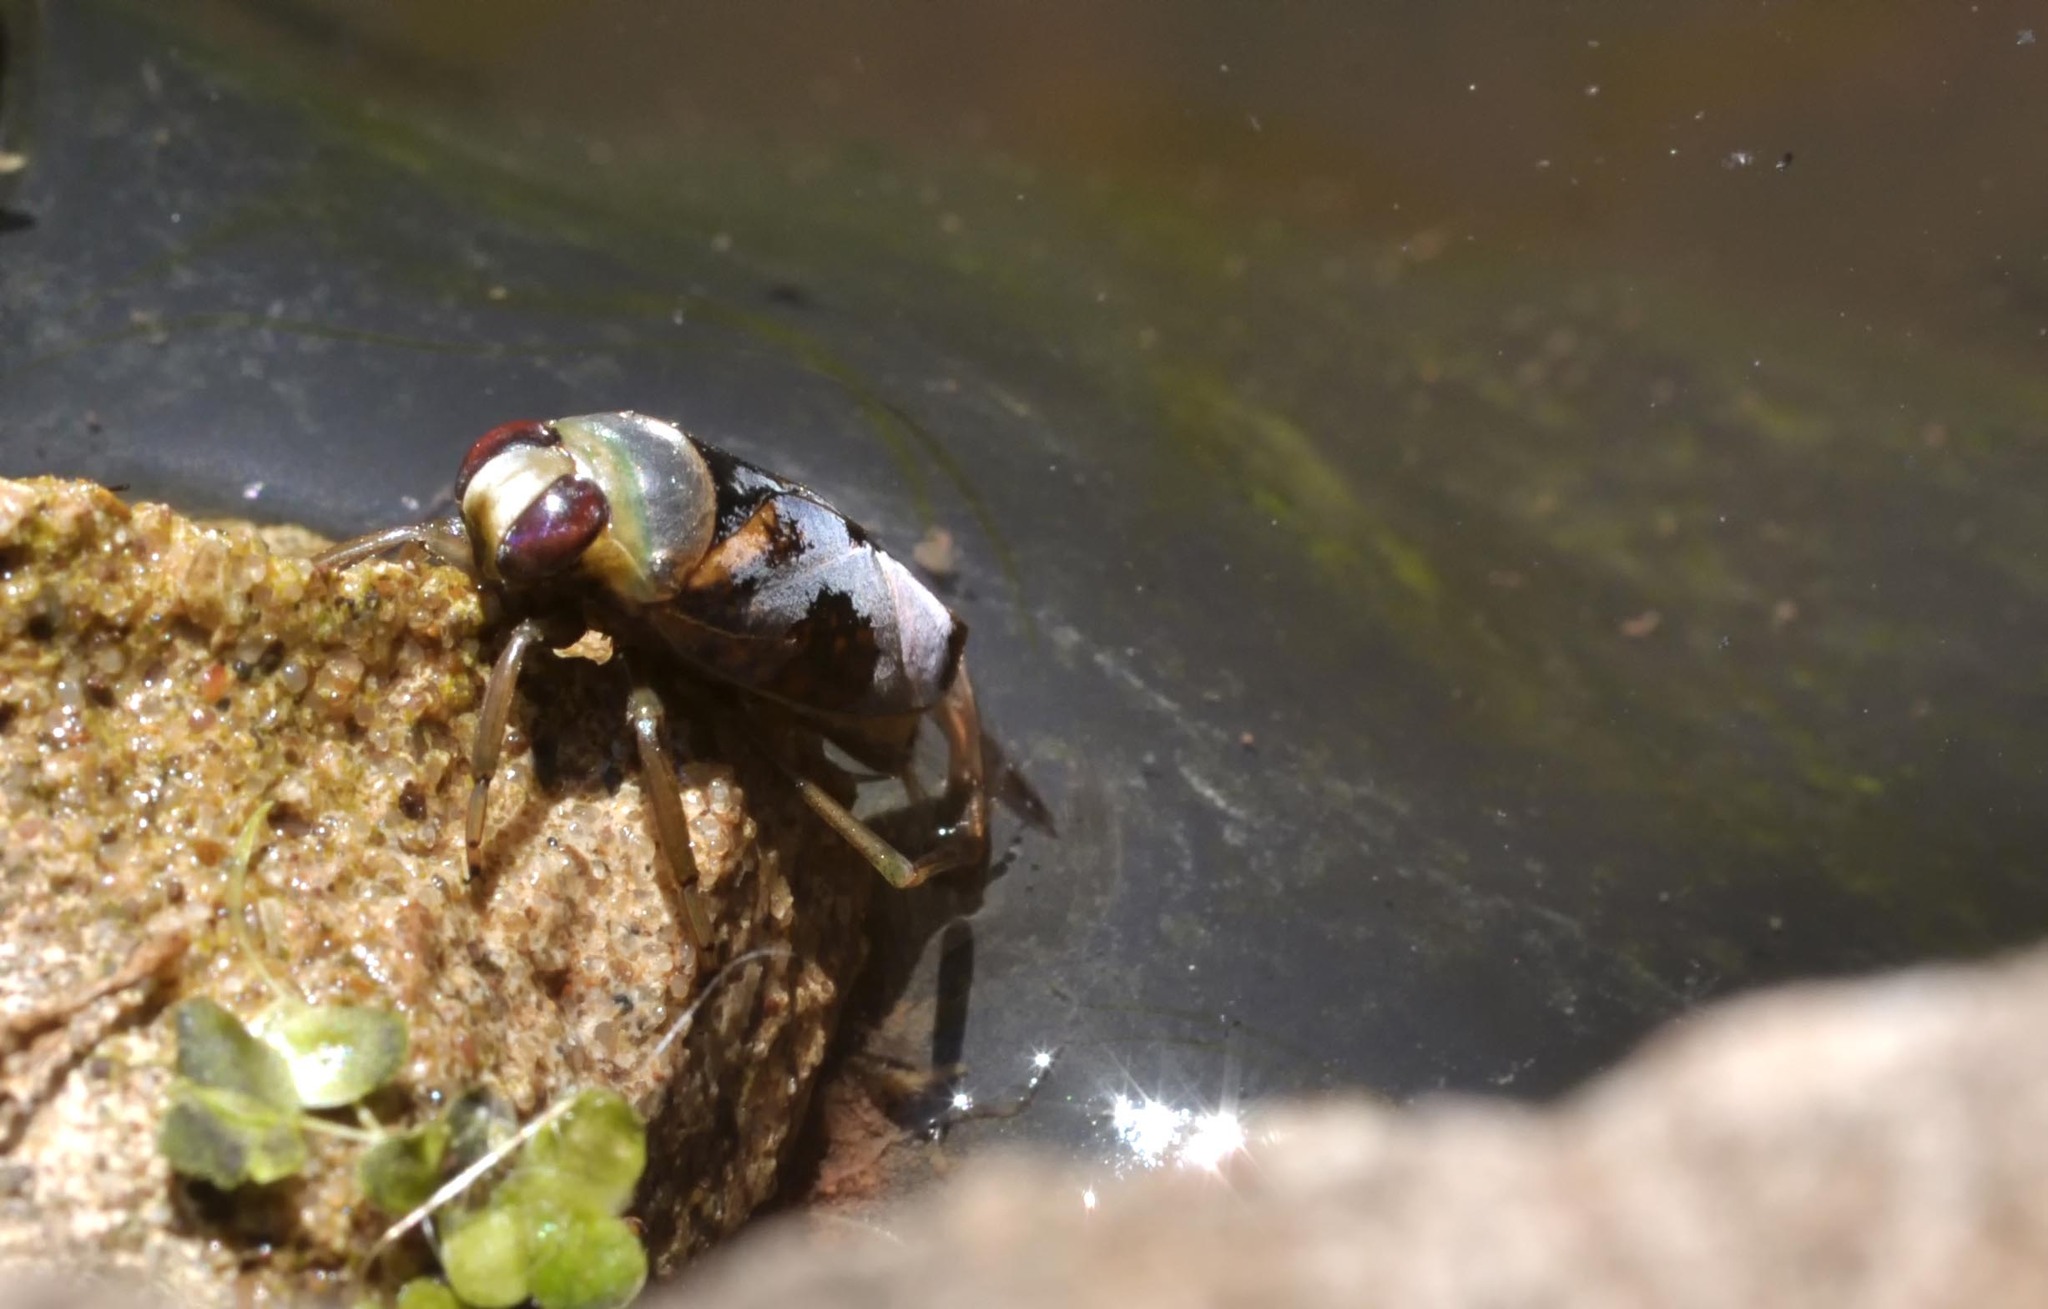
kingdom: Animalia
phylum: Arthropoda
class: Insecta
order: Hemiptera
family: Notonectidae
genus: Notonecta
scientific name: Notonecta maculata
